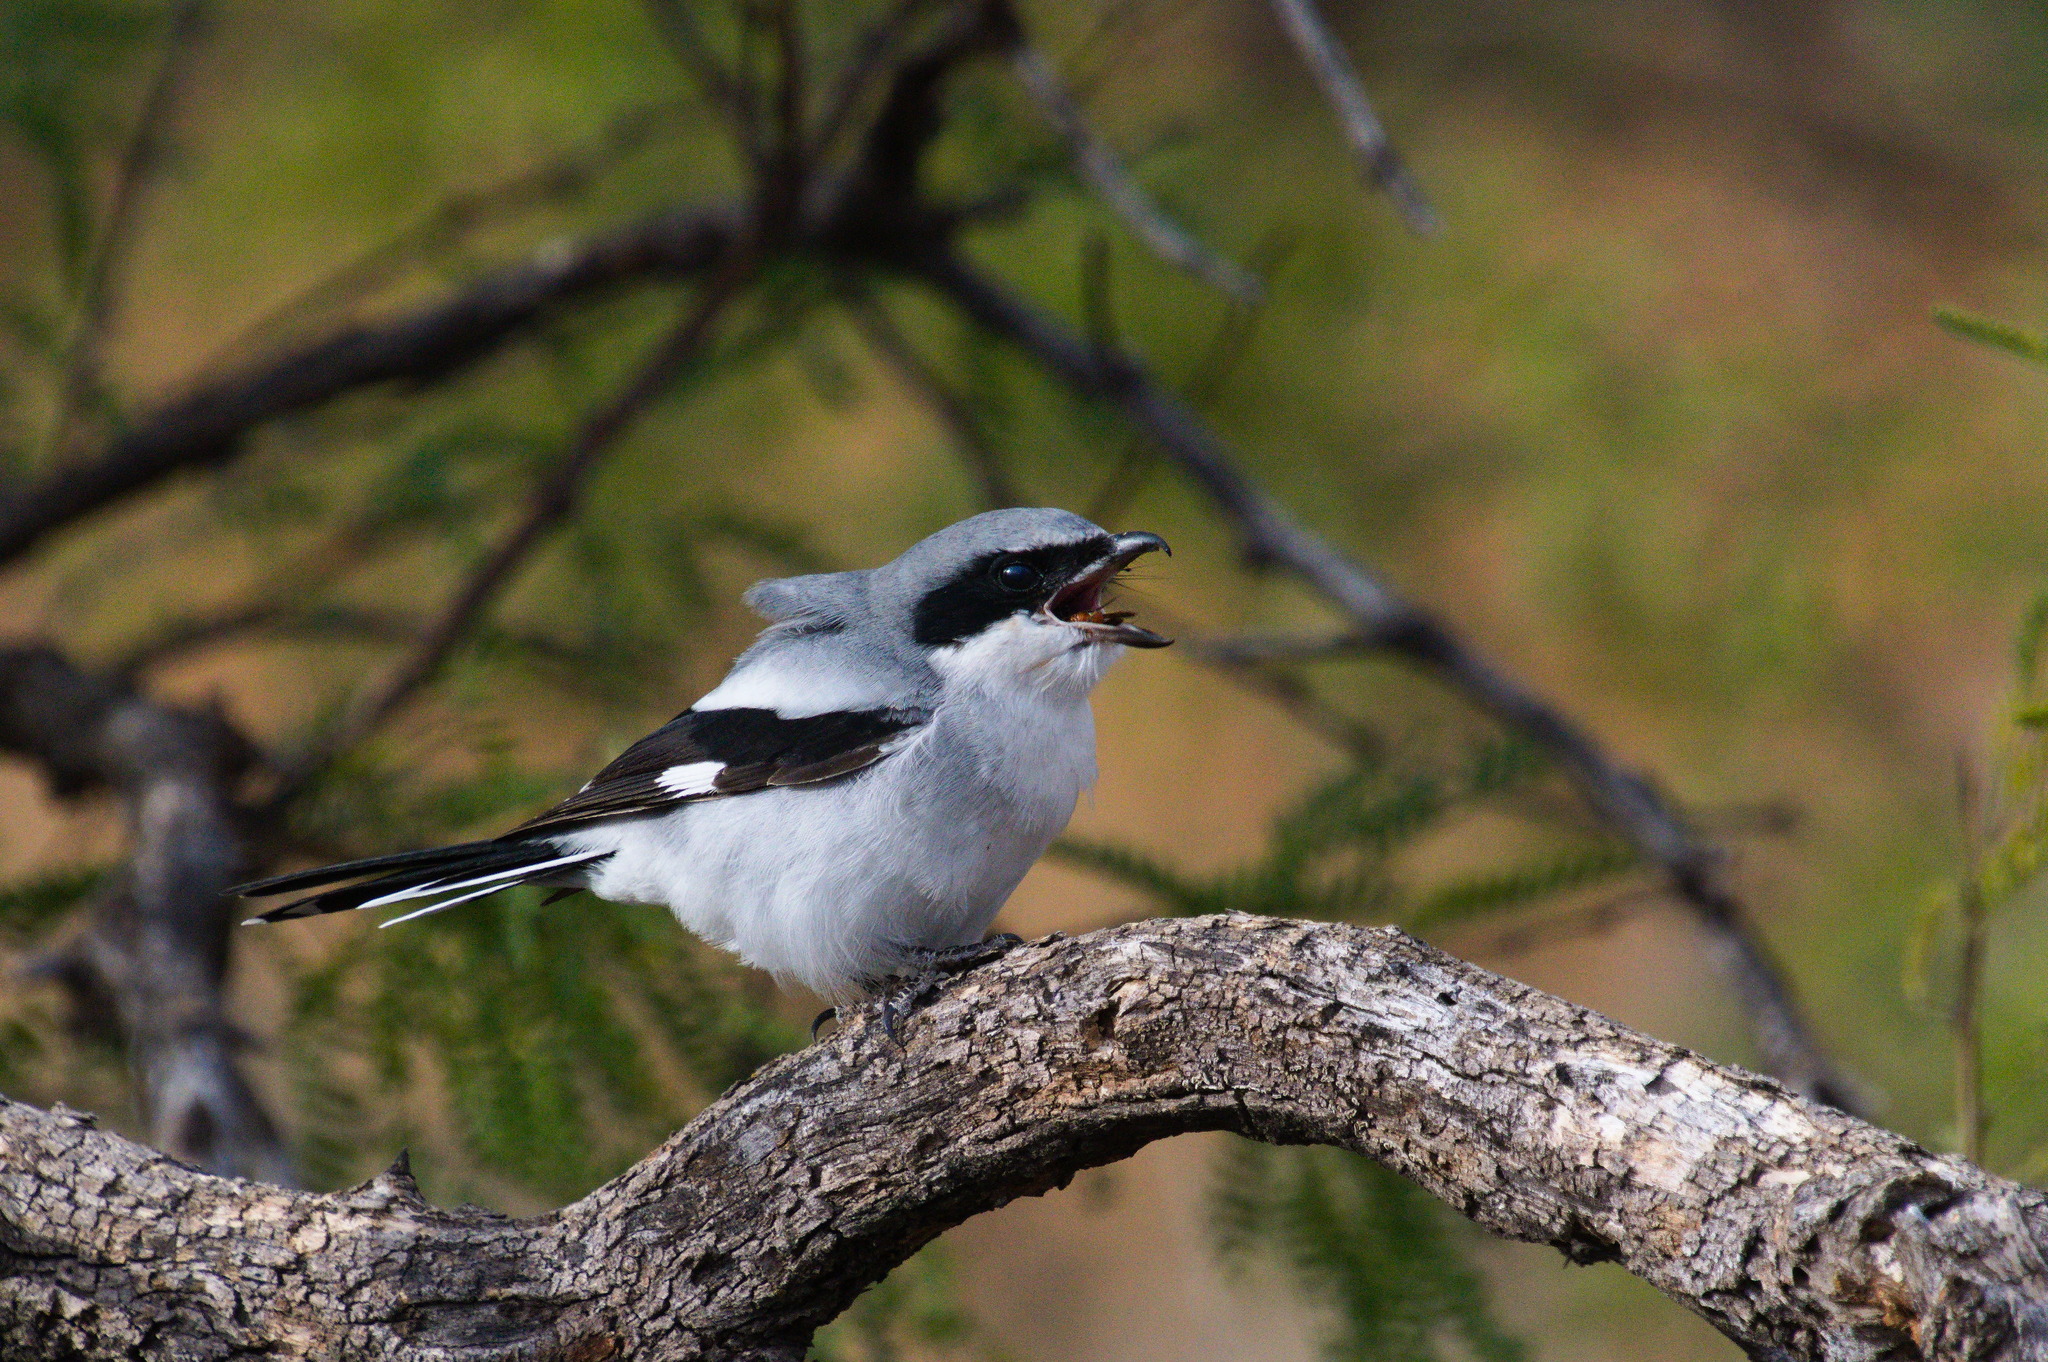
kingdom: Animalia
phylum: Chordata
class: Aves
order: Passeriformes
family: Laniidae
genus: Lanius
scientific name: Lanius ludovicianus
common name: Loggerhead shrike
